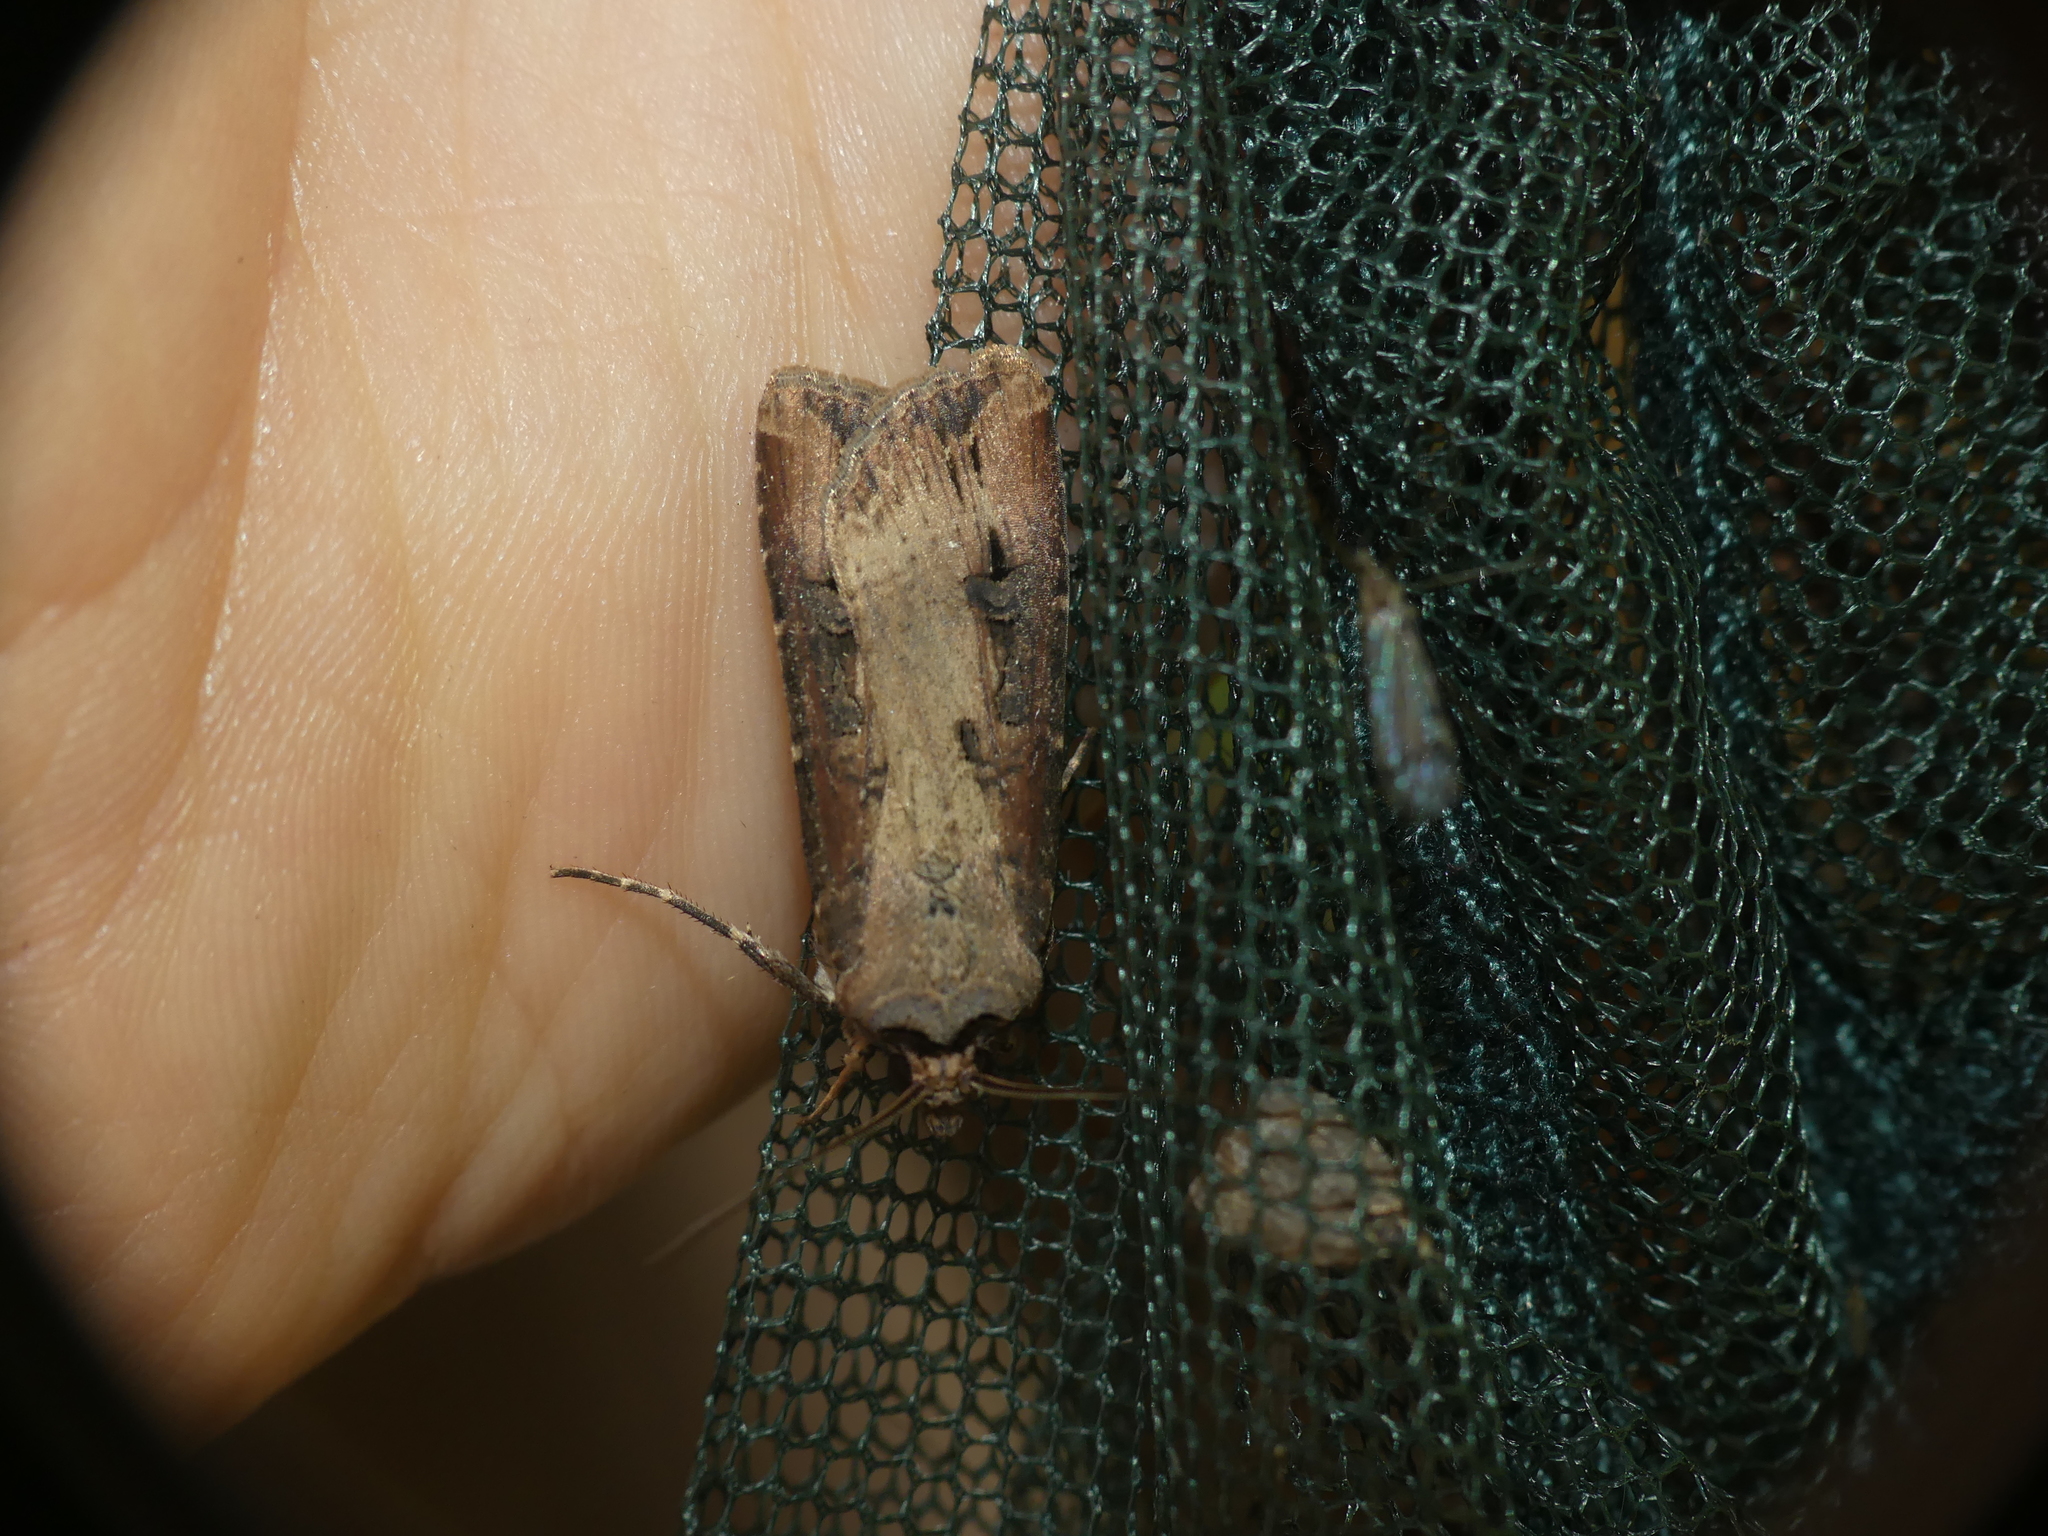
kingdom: Animalia
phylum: Arthropoda
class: Insecta
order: Lepidoptera
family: Noctuidae
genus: Agrotis
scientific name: Agrotis ipsilon
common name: Dark sword-grass
